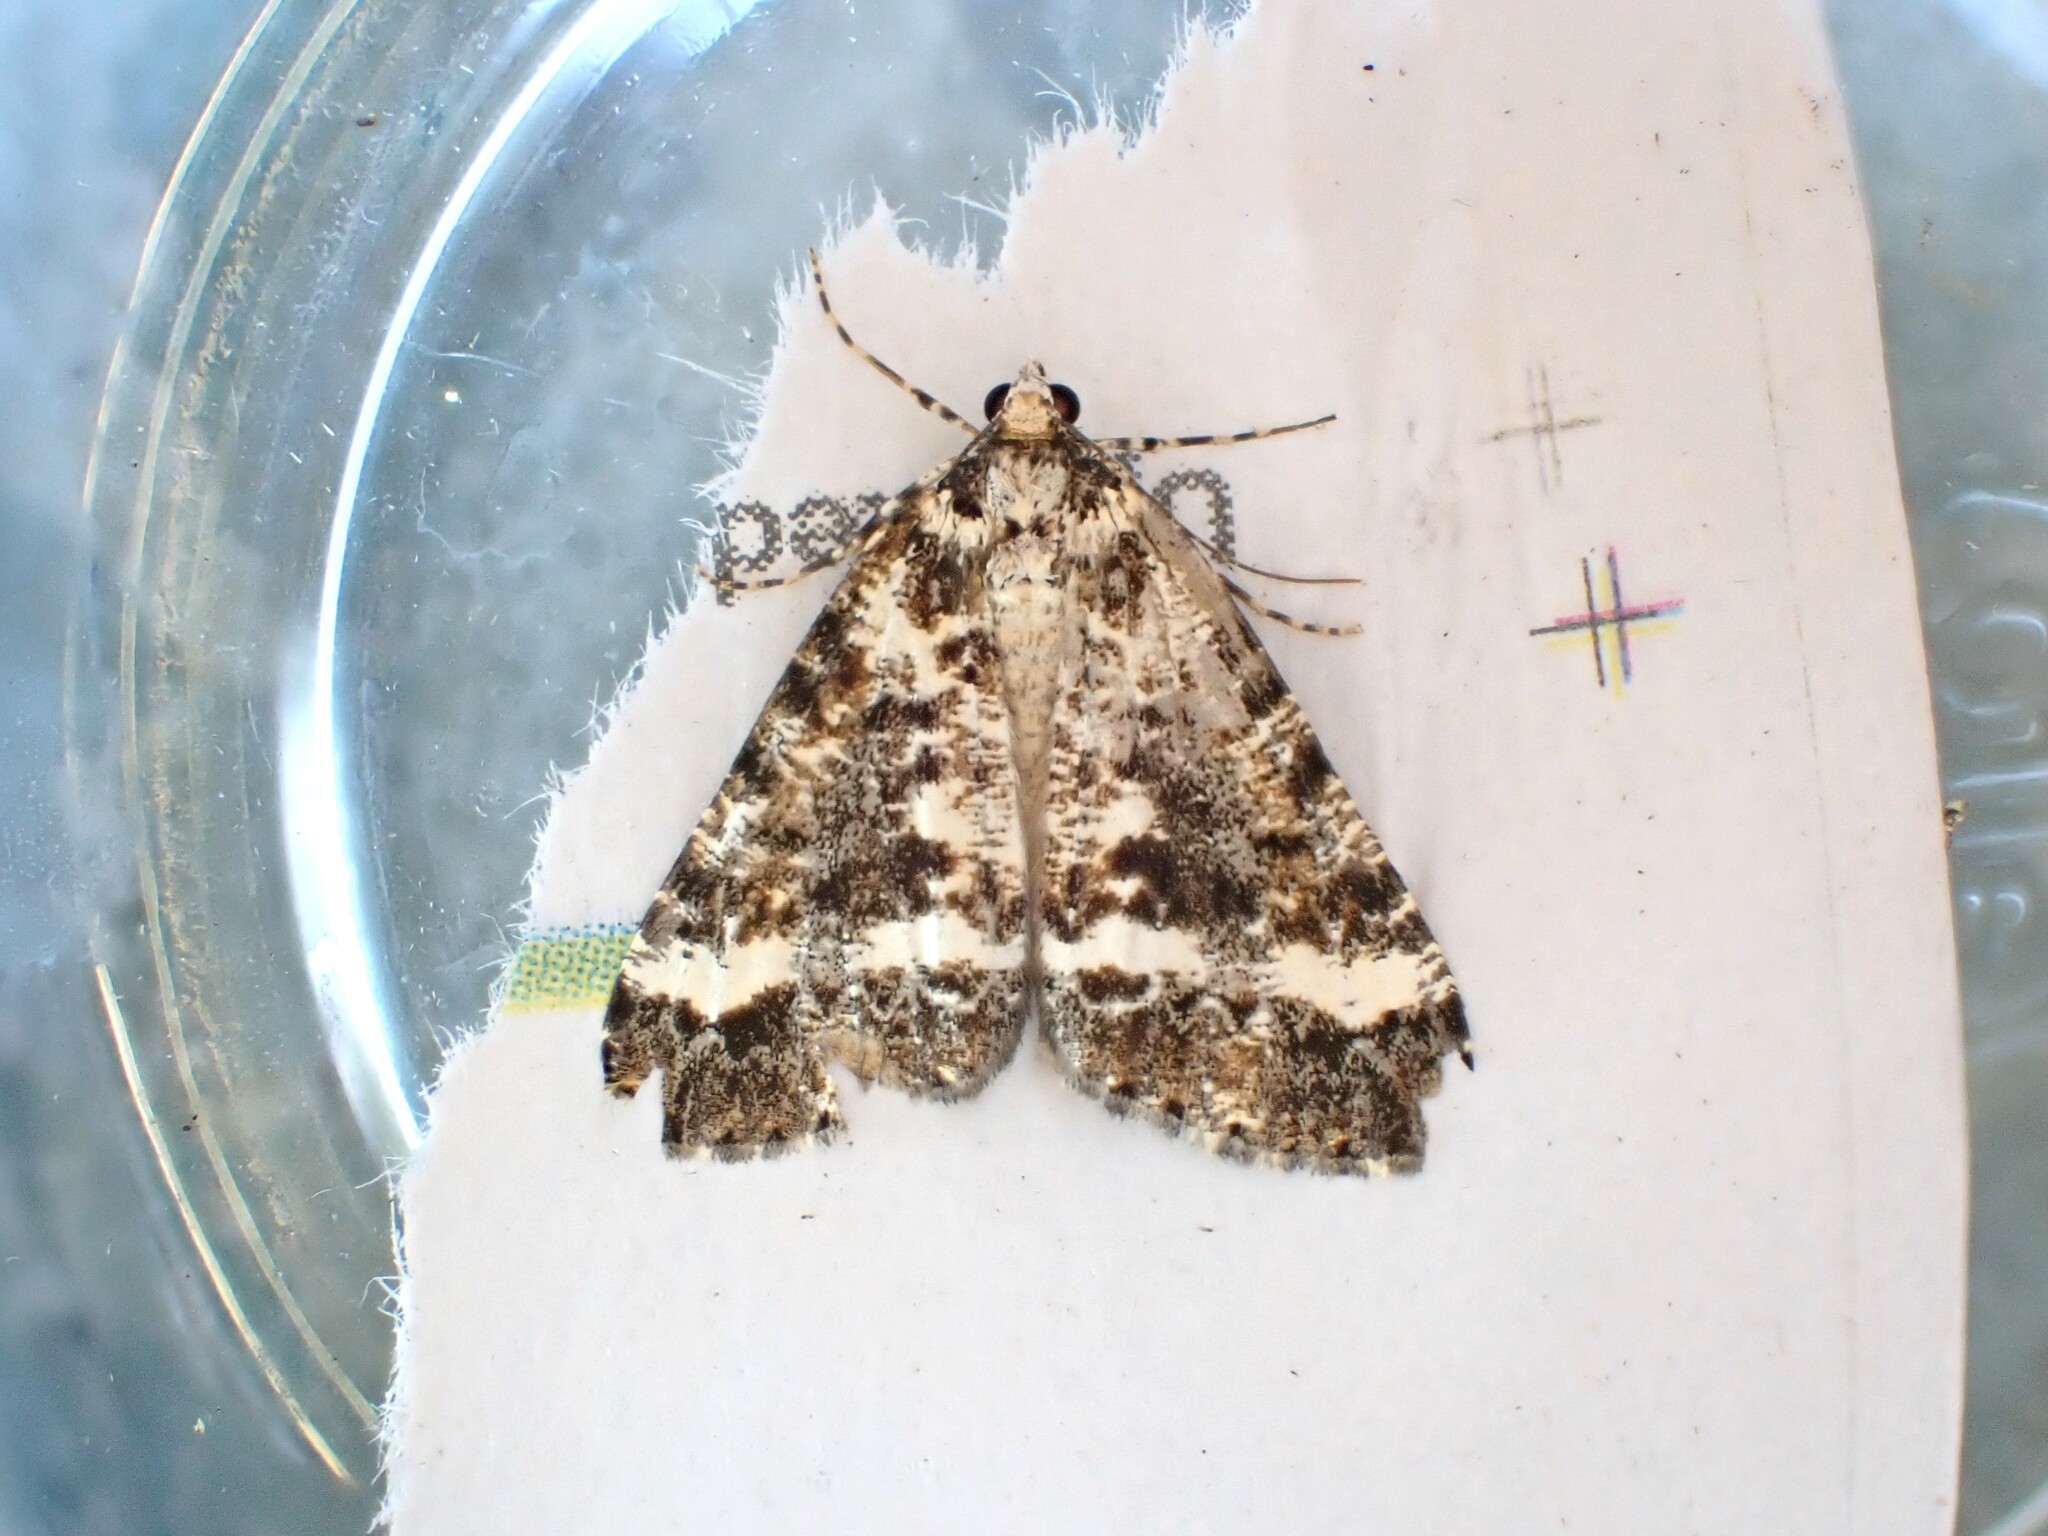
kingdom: Animalia
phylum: Arthropoda
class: Insecta
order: Lepidoptera
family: Geometridae
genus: Pseudocoremia
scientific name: Pseudocoremia leucelaea
